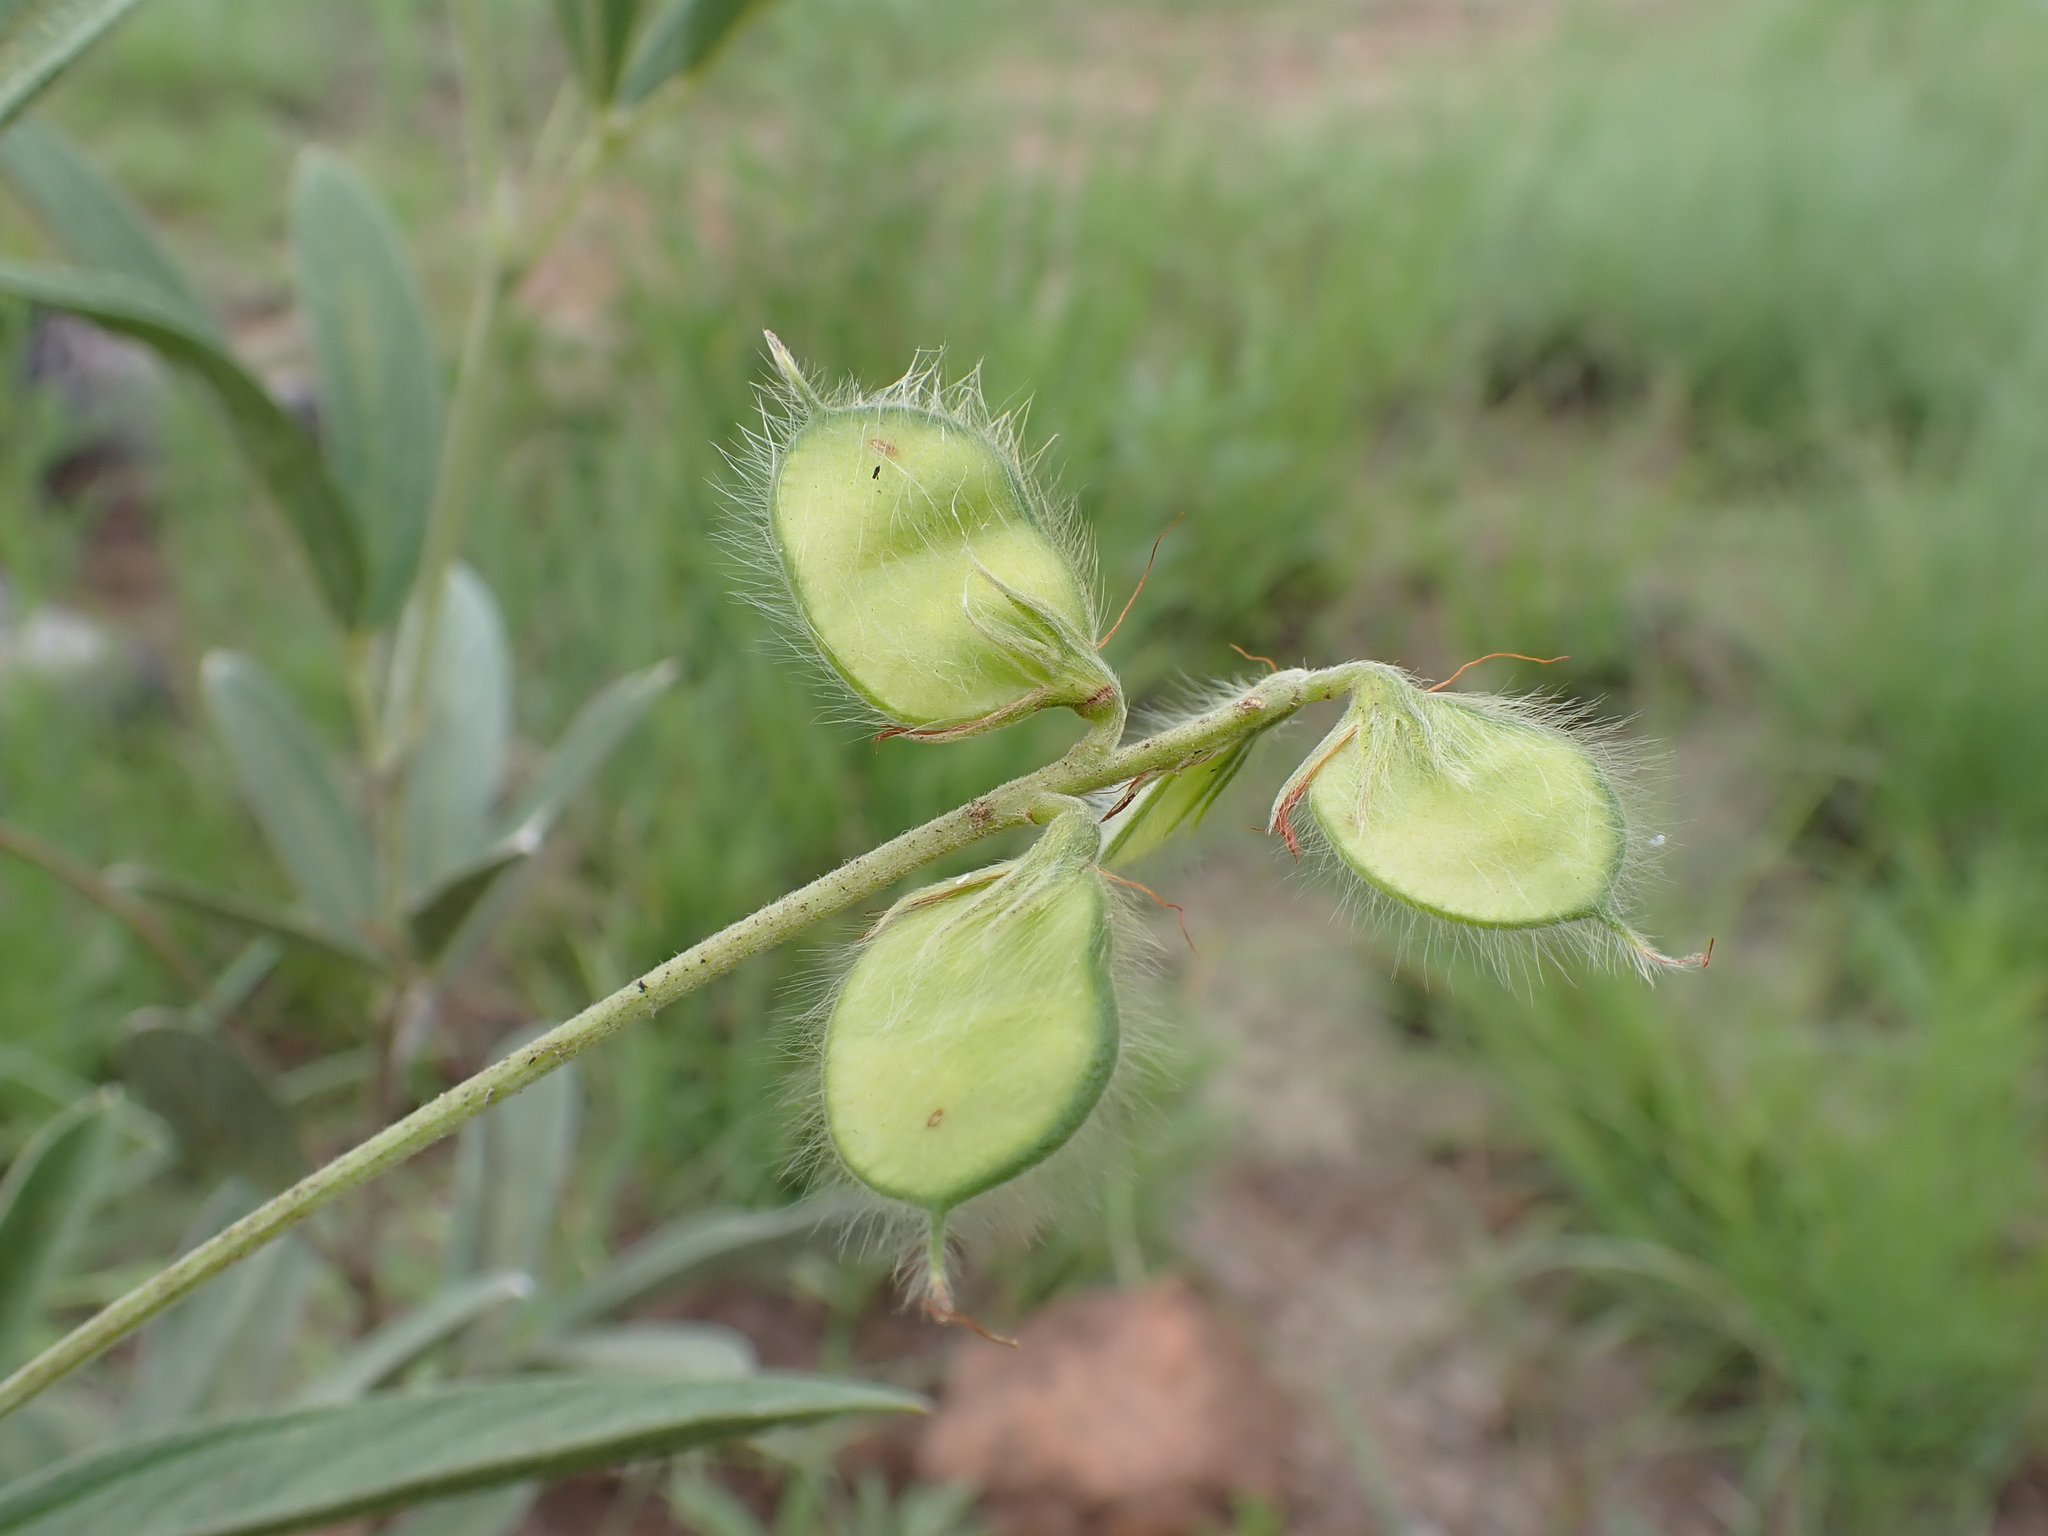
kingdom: Plantae
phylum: Tracheophyta
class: Magnoliopsida
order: Fabales
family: Fabaceae
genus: Eriosema
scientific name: Eriosema psoraleoides
